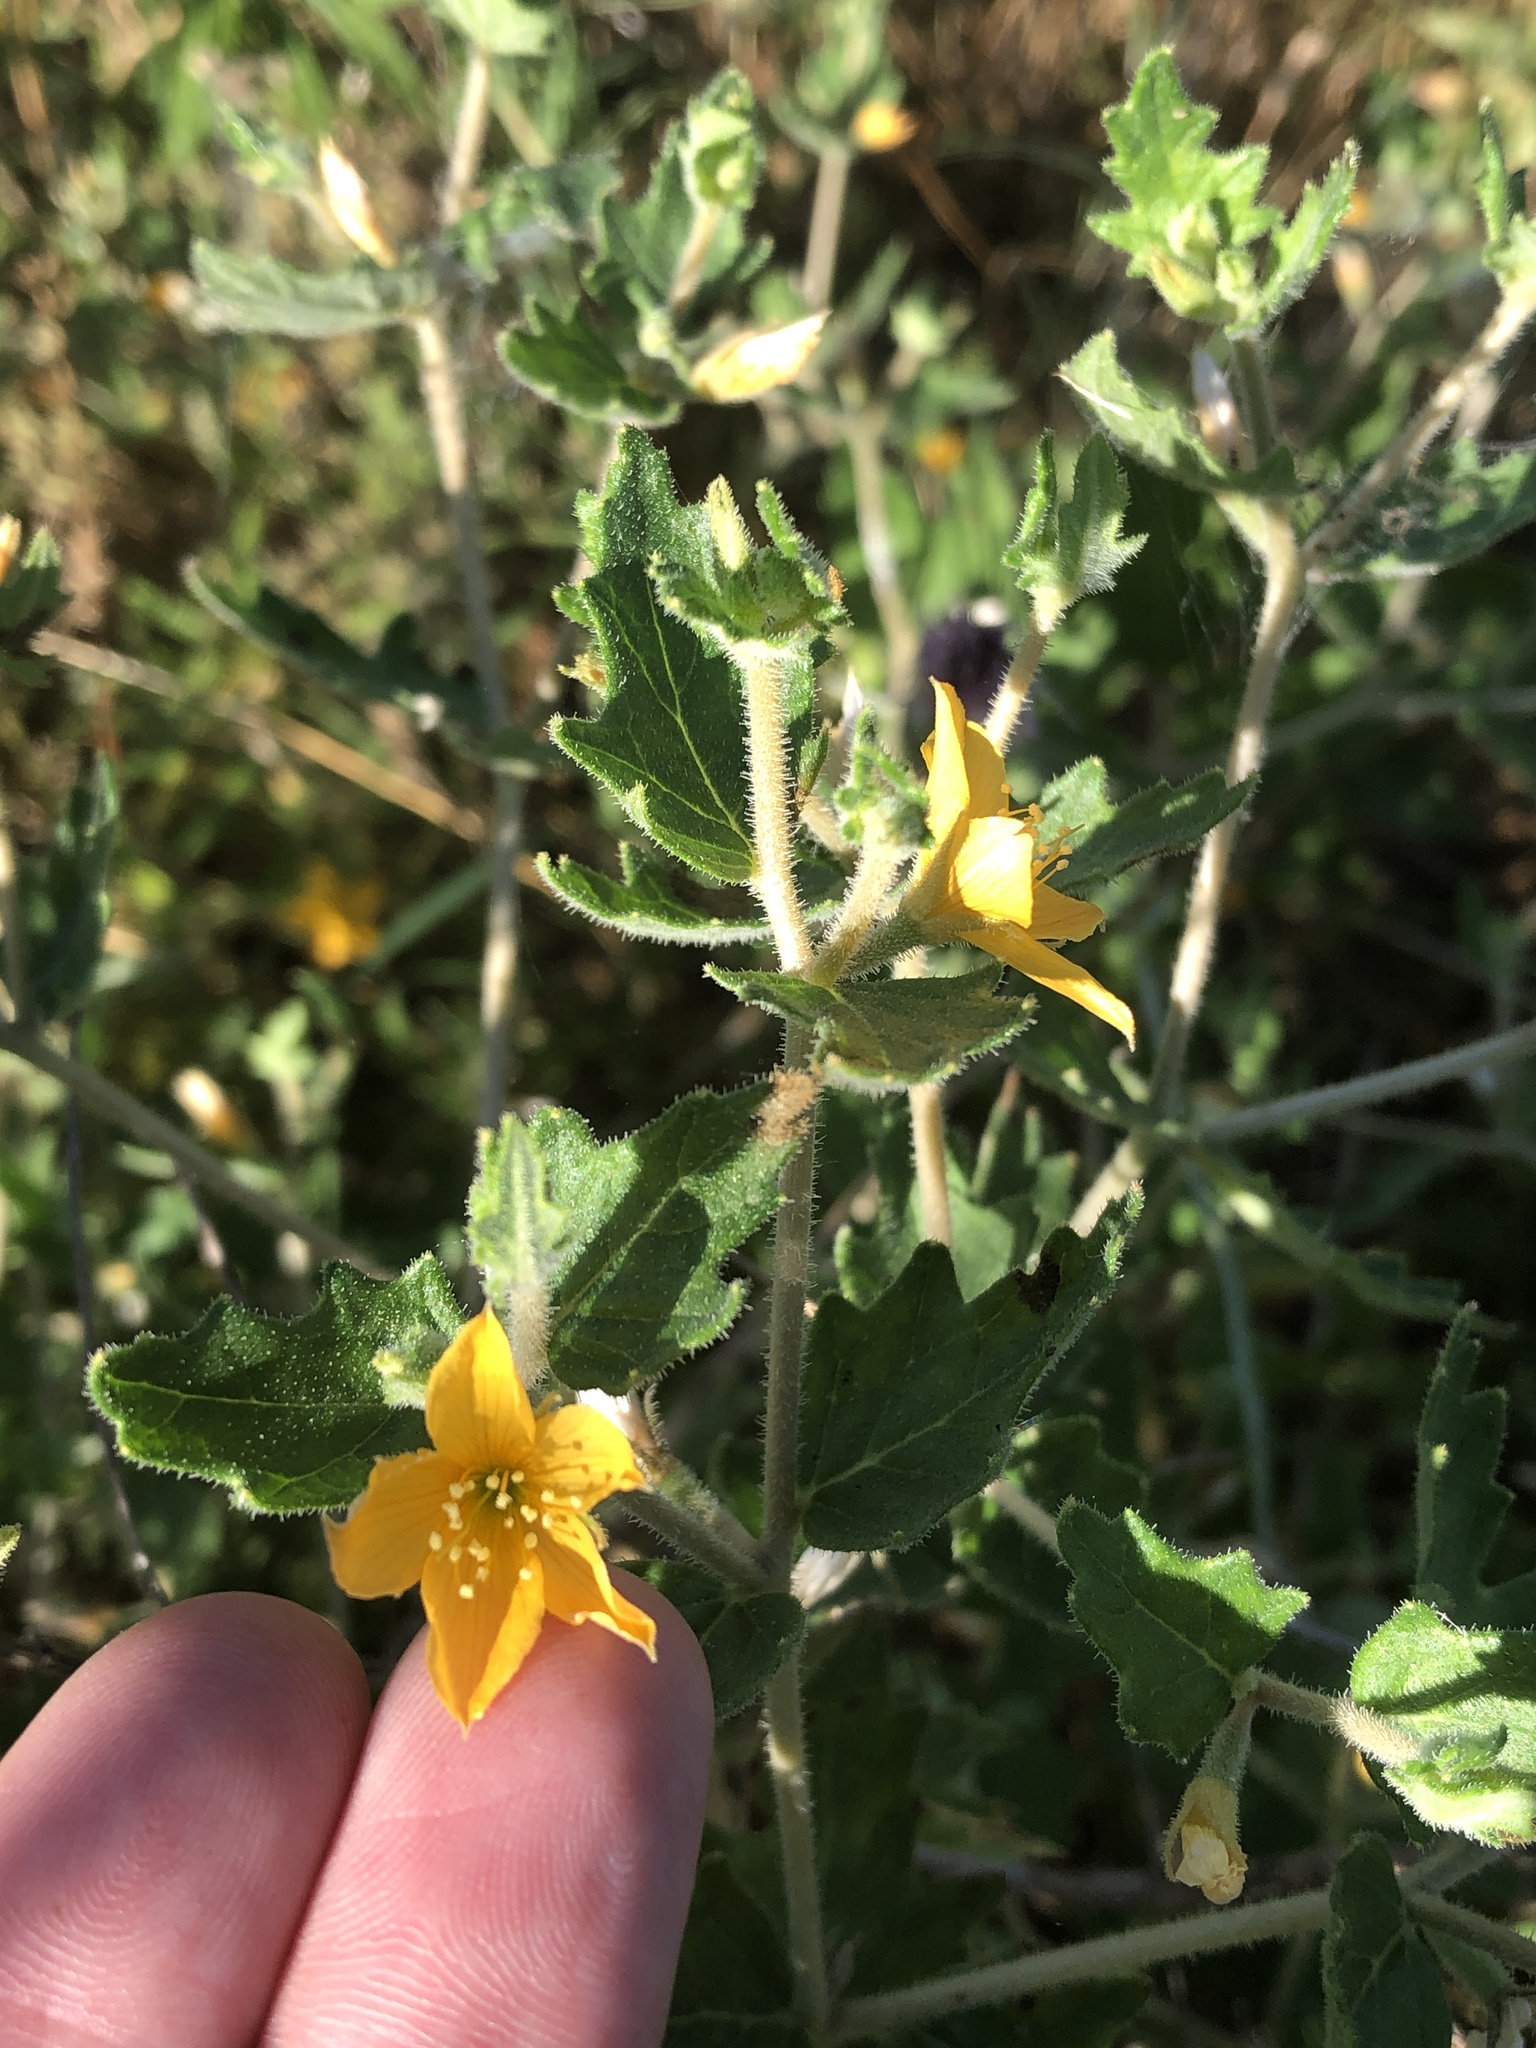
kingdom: Plantae
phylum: Tracheophyta
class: Magnoliopsida
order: Cornales
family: Loasaceae
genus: Mentzelia
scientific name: Mentzelia oligosperma
